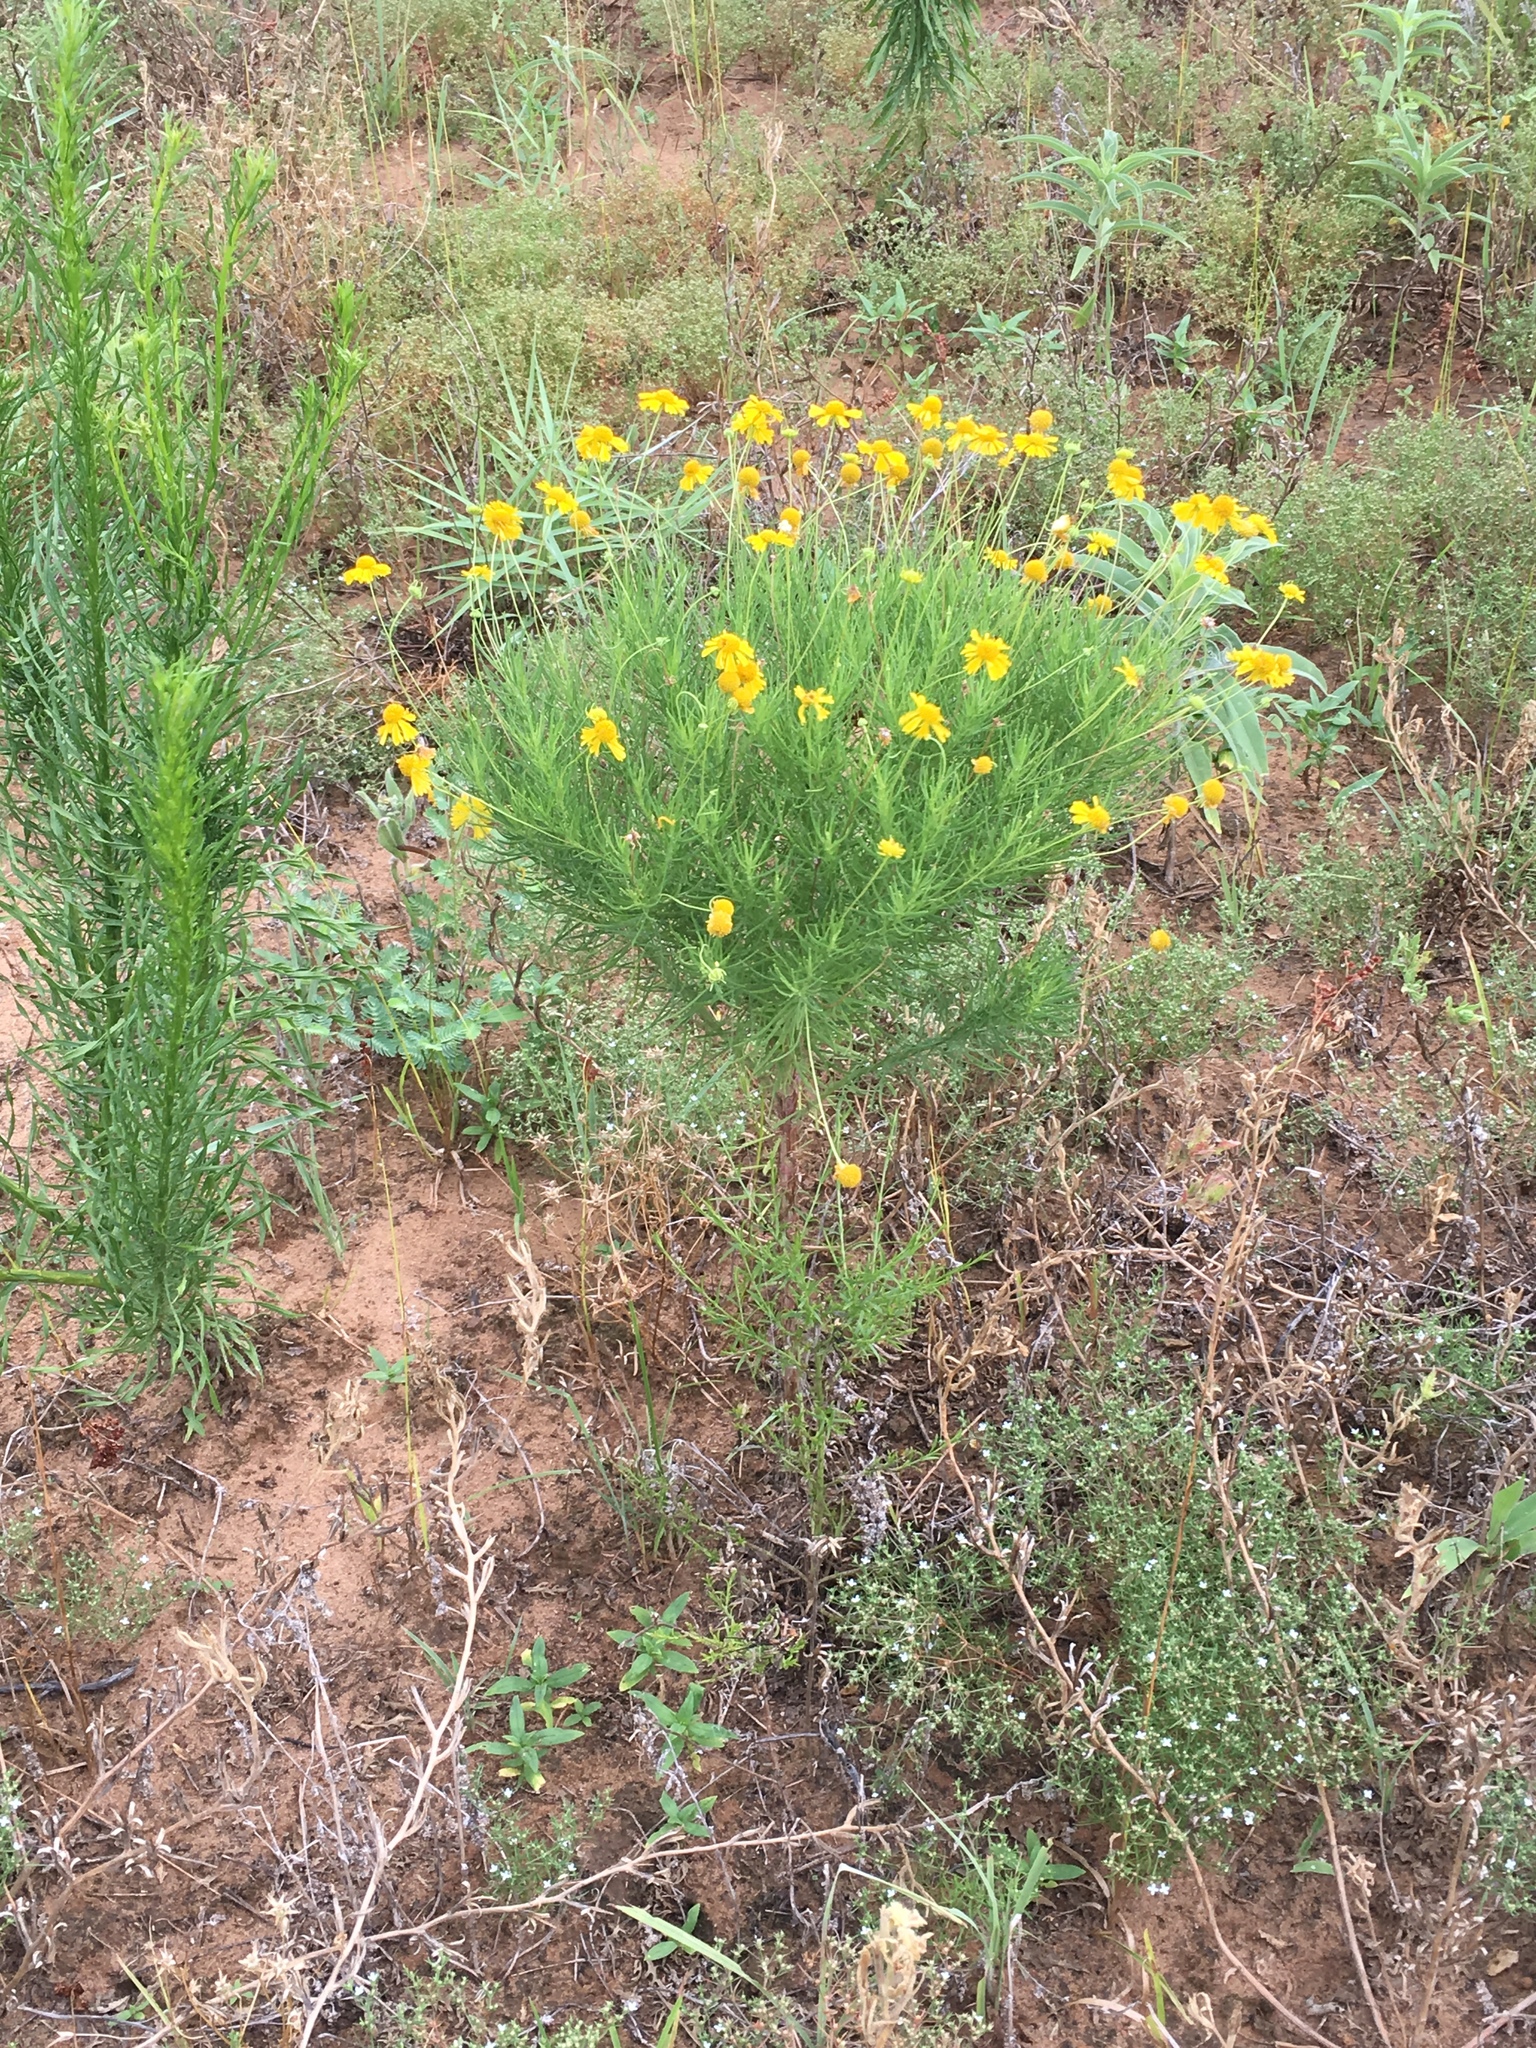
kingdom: Plantae
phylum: Tracheophyta
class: Magnoliopsida
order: Asterales
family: Asteraceae
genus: Helenium
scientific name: Helenium amarum
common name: Bitter sneezeweed
